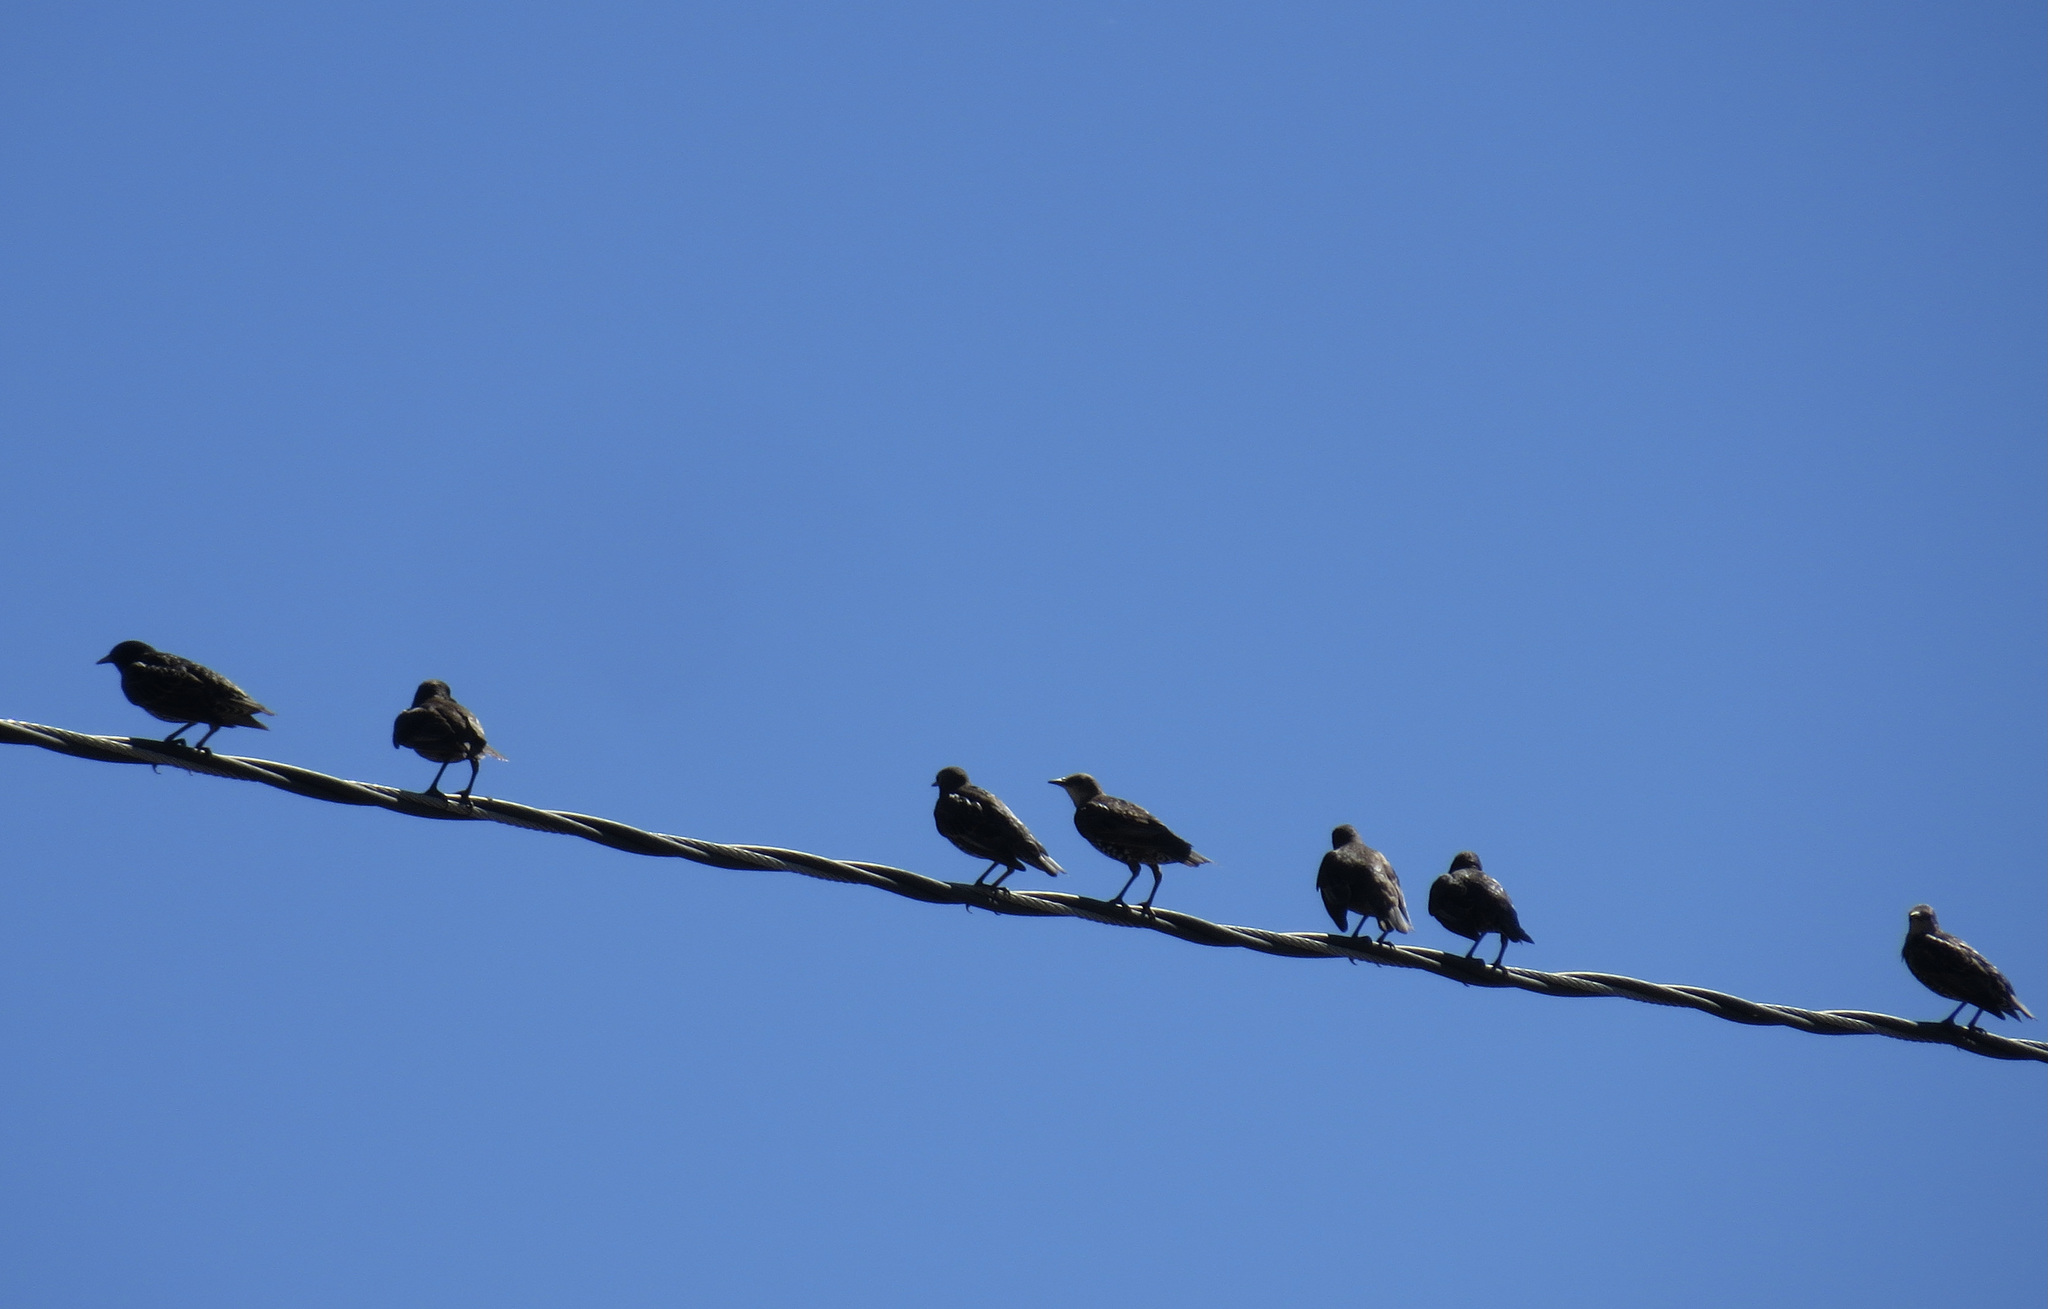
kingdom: Animalia
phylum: Chordata
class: Aves
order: Passeriformes
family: Sturnidae
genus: Sturnus
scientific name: Sturnus vulgaris
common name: Common starling
